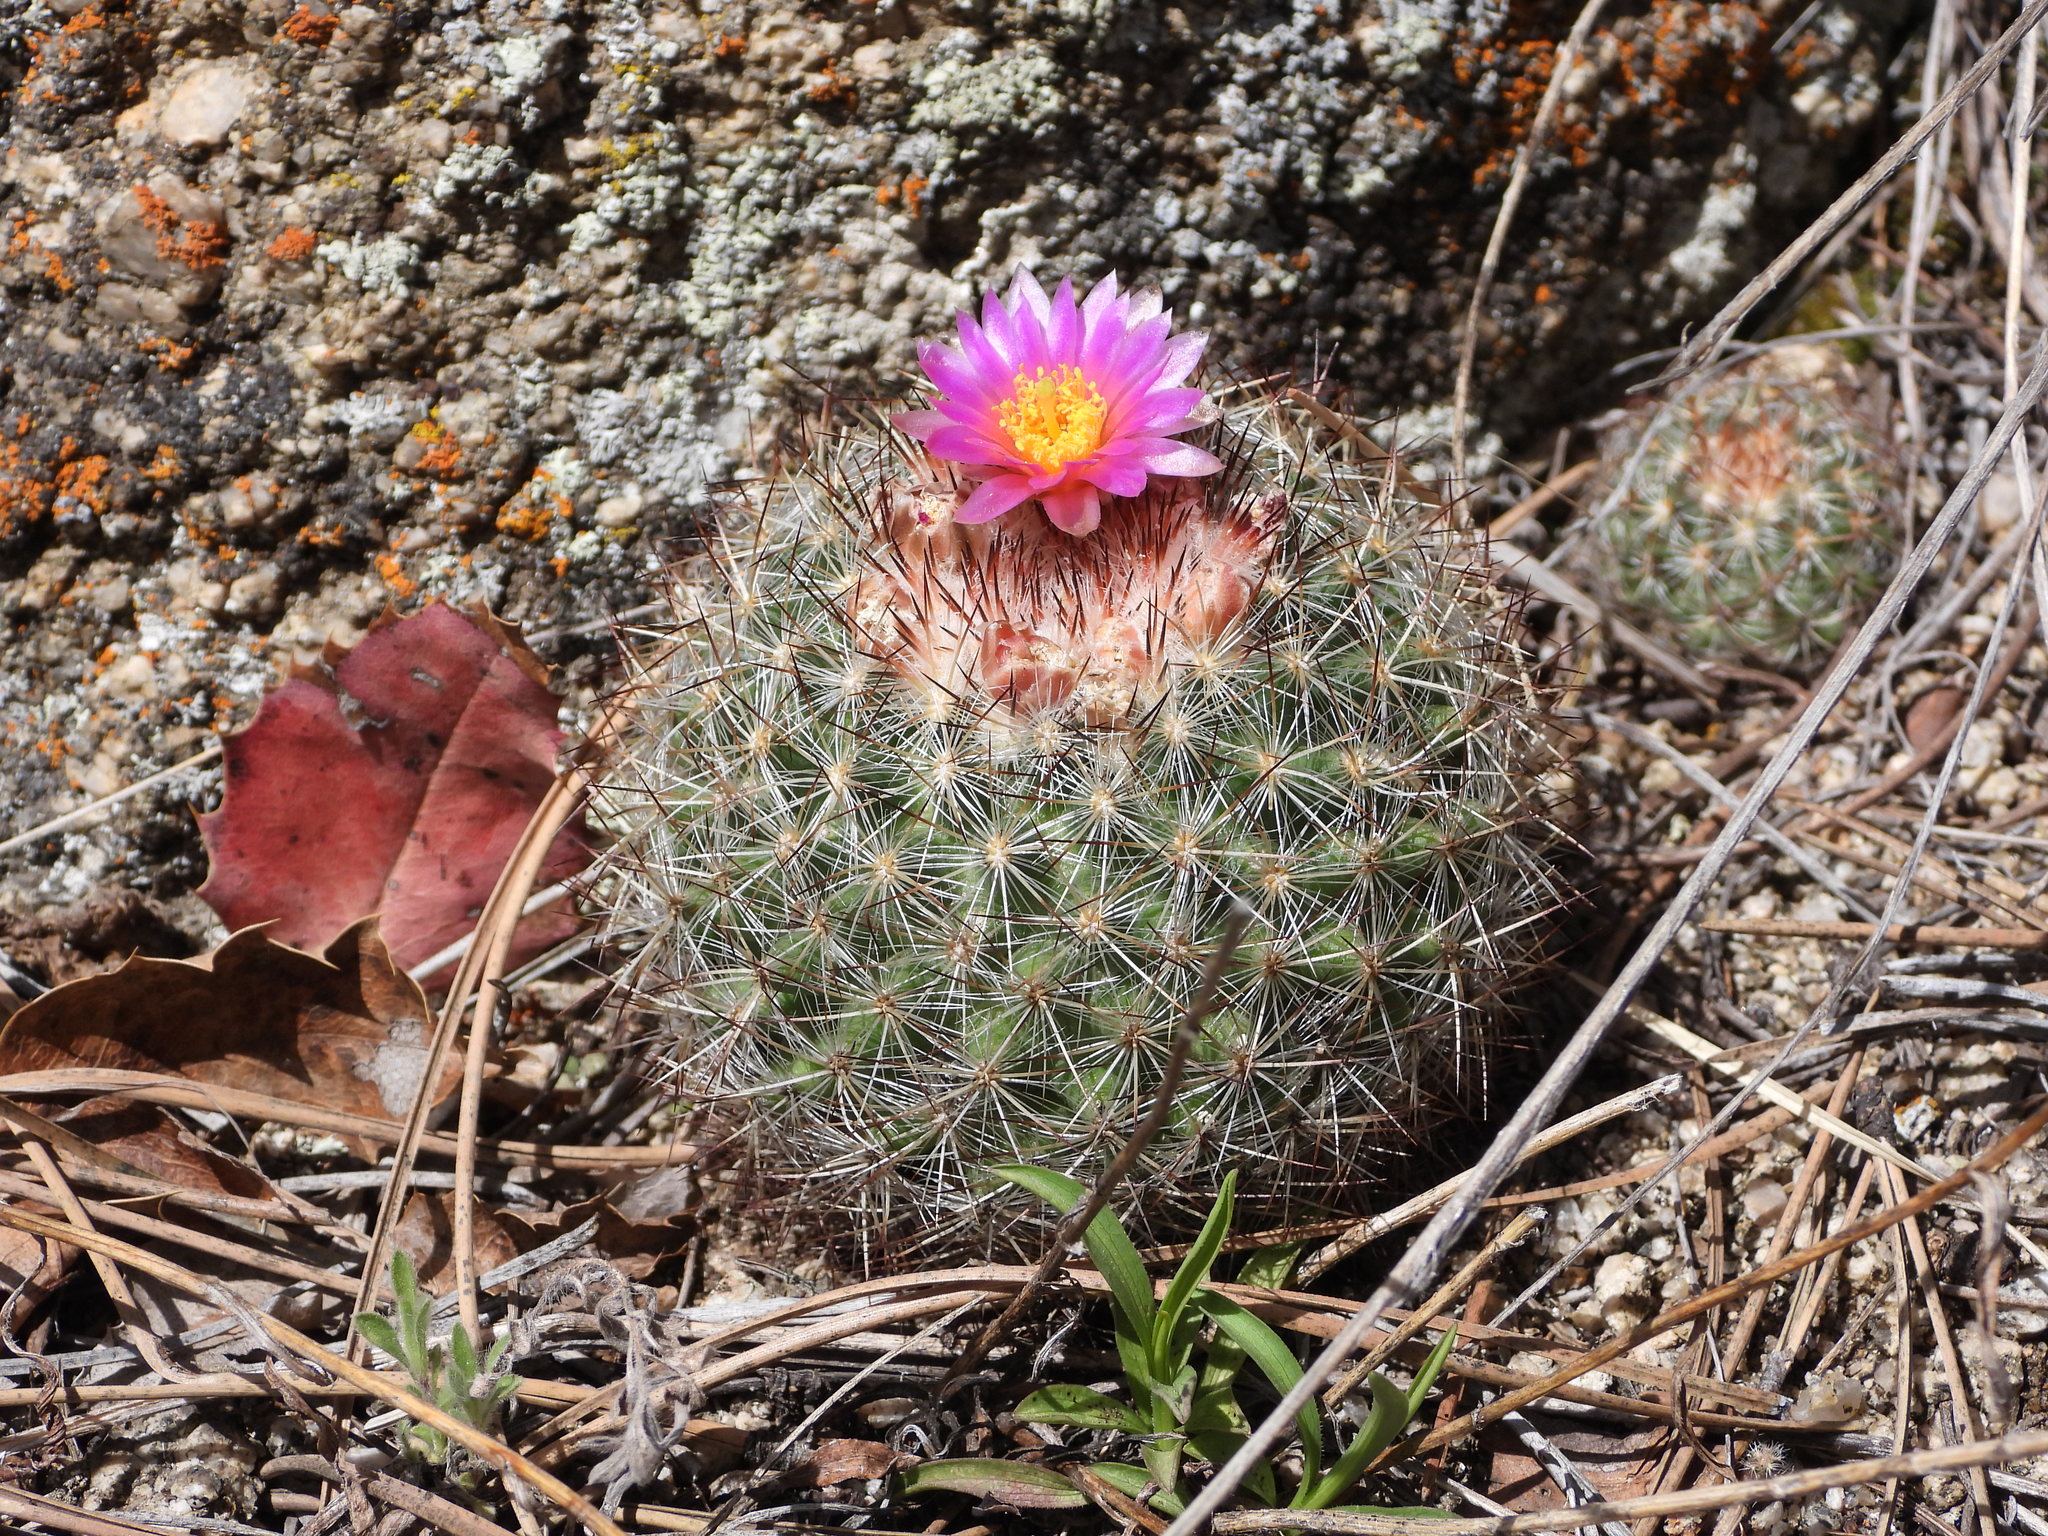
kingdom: Plantae
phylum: Tracheophyta
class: Magnoliopsida
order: Caryophyllales
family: Cactaceae
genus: Pediocactus
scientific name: Pediocactus simpsonii
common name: Simpson's hedgehog cactus
